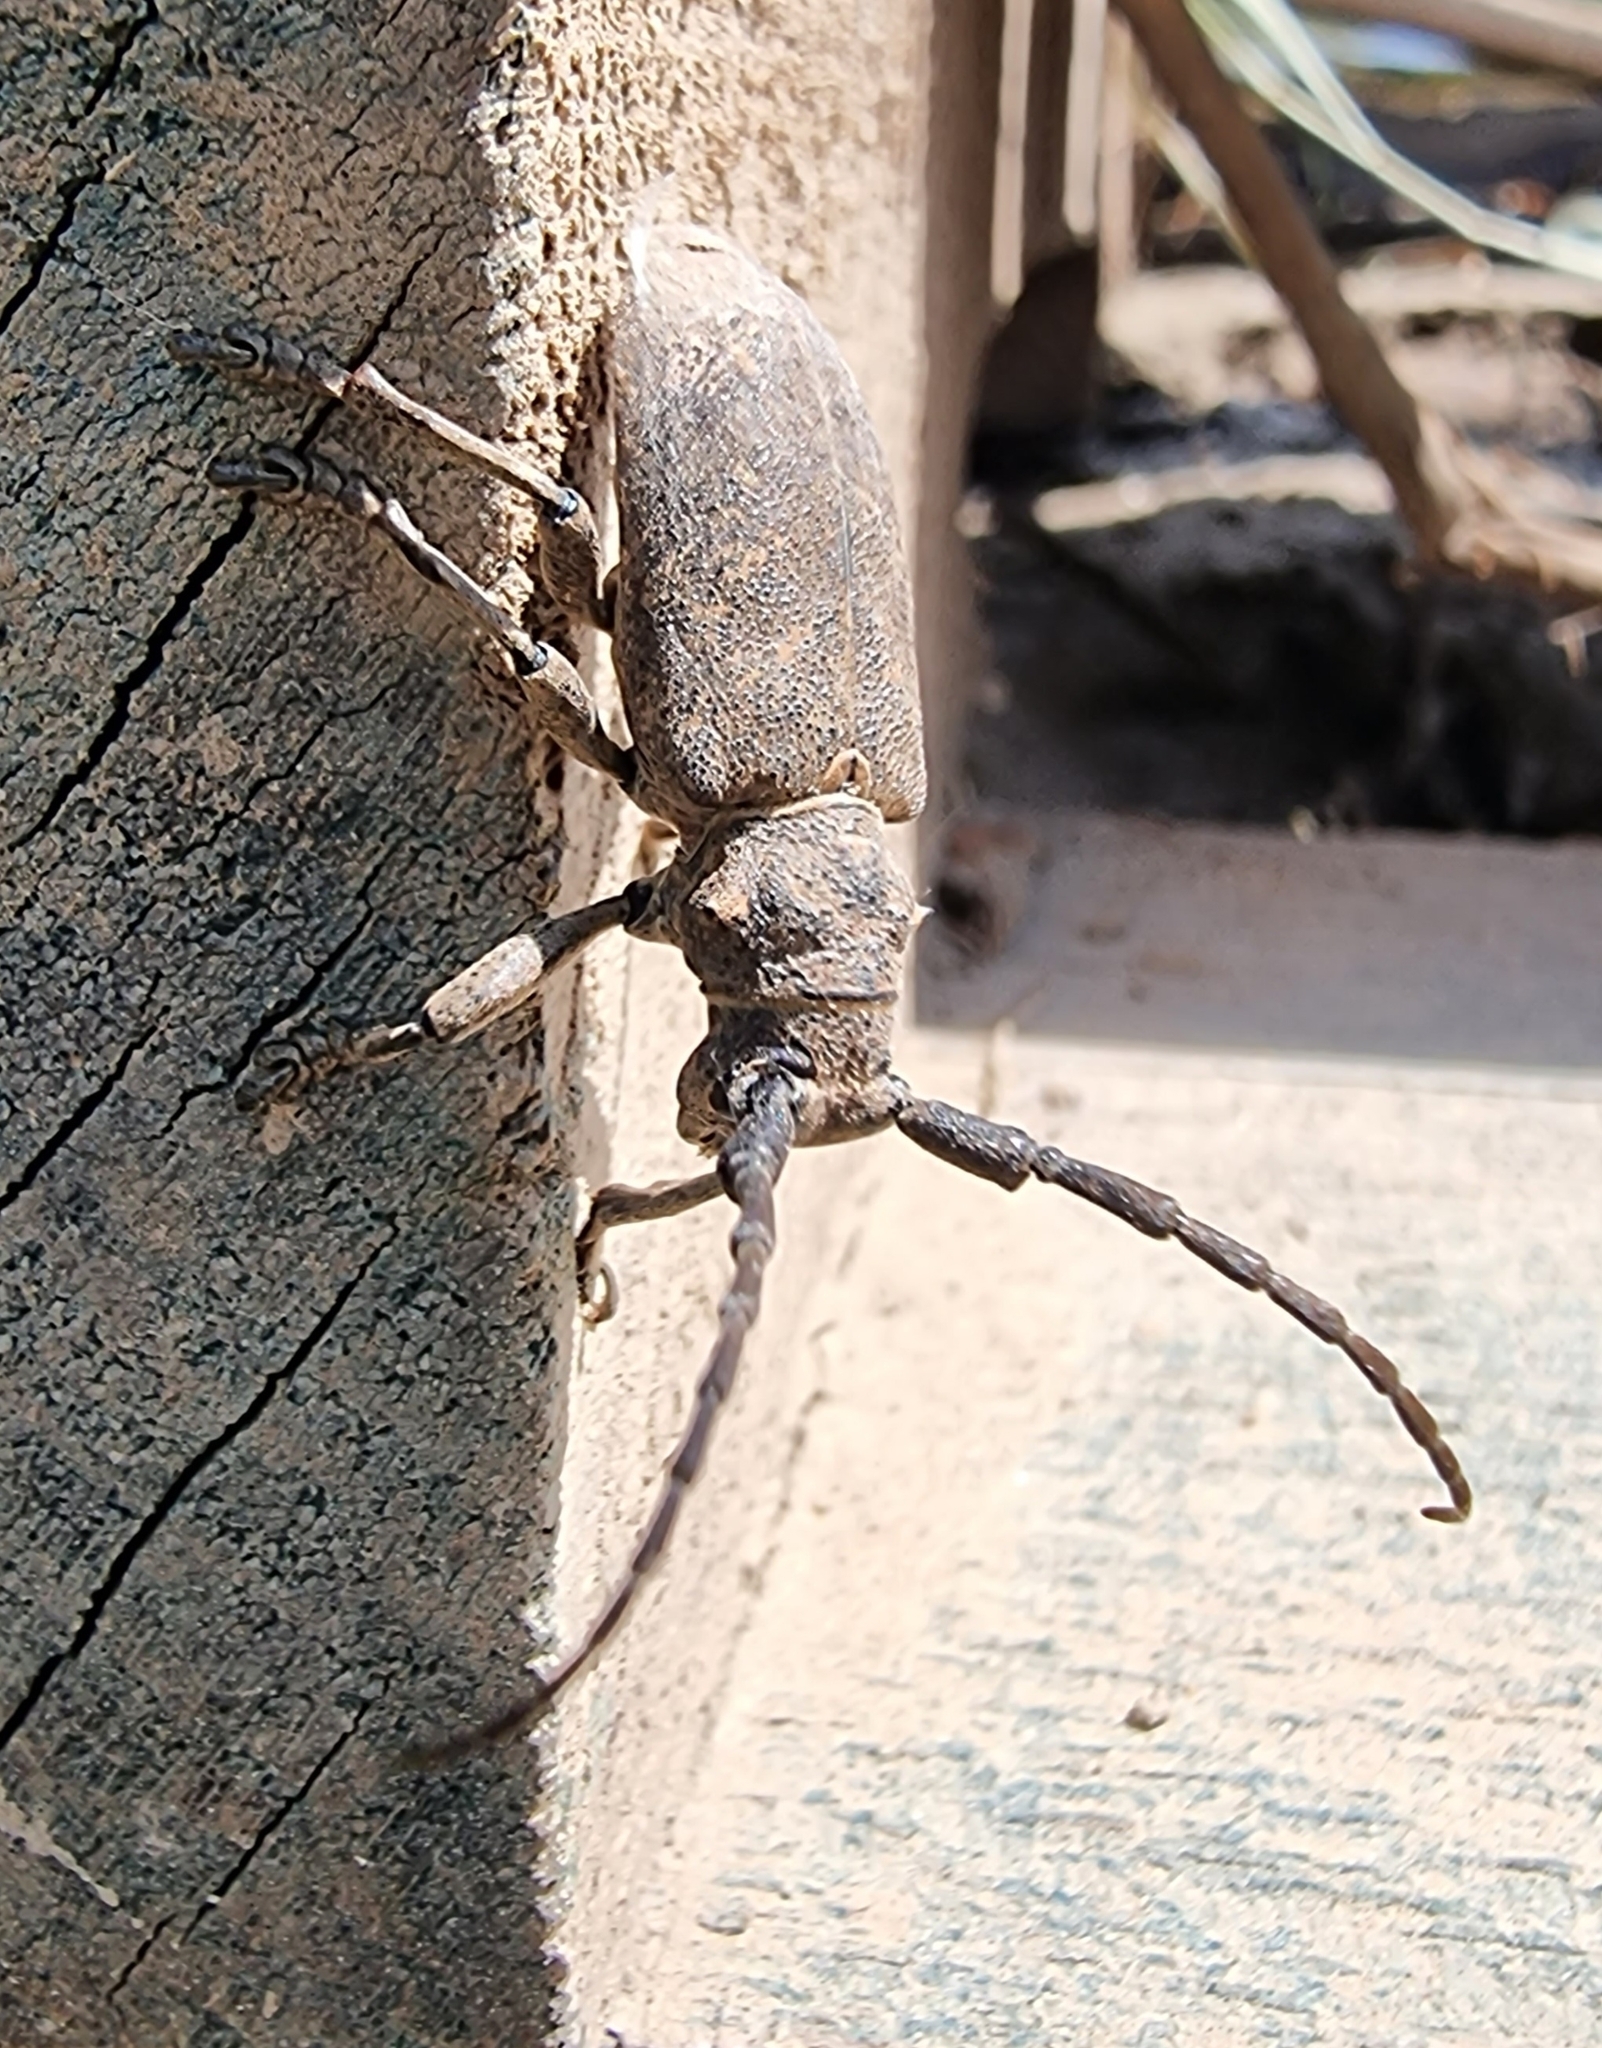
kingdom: Animalia
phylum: Arthropoda
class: Insecta
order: Coleoptera
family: Cerambycidae
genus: Lamia
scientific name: Lamia textor
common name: Weaver beetle
